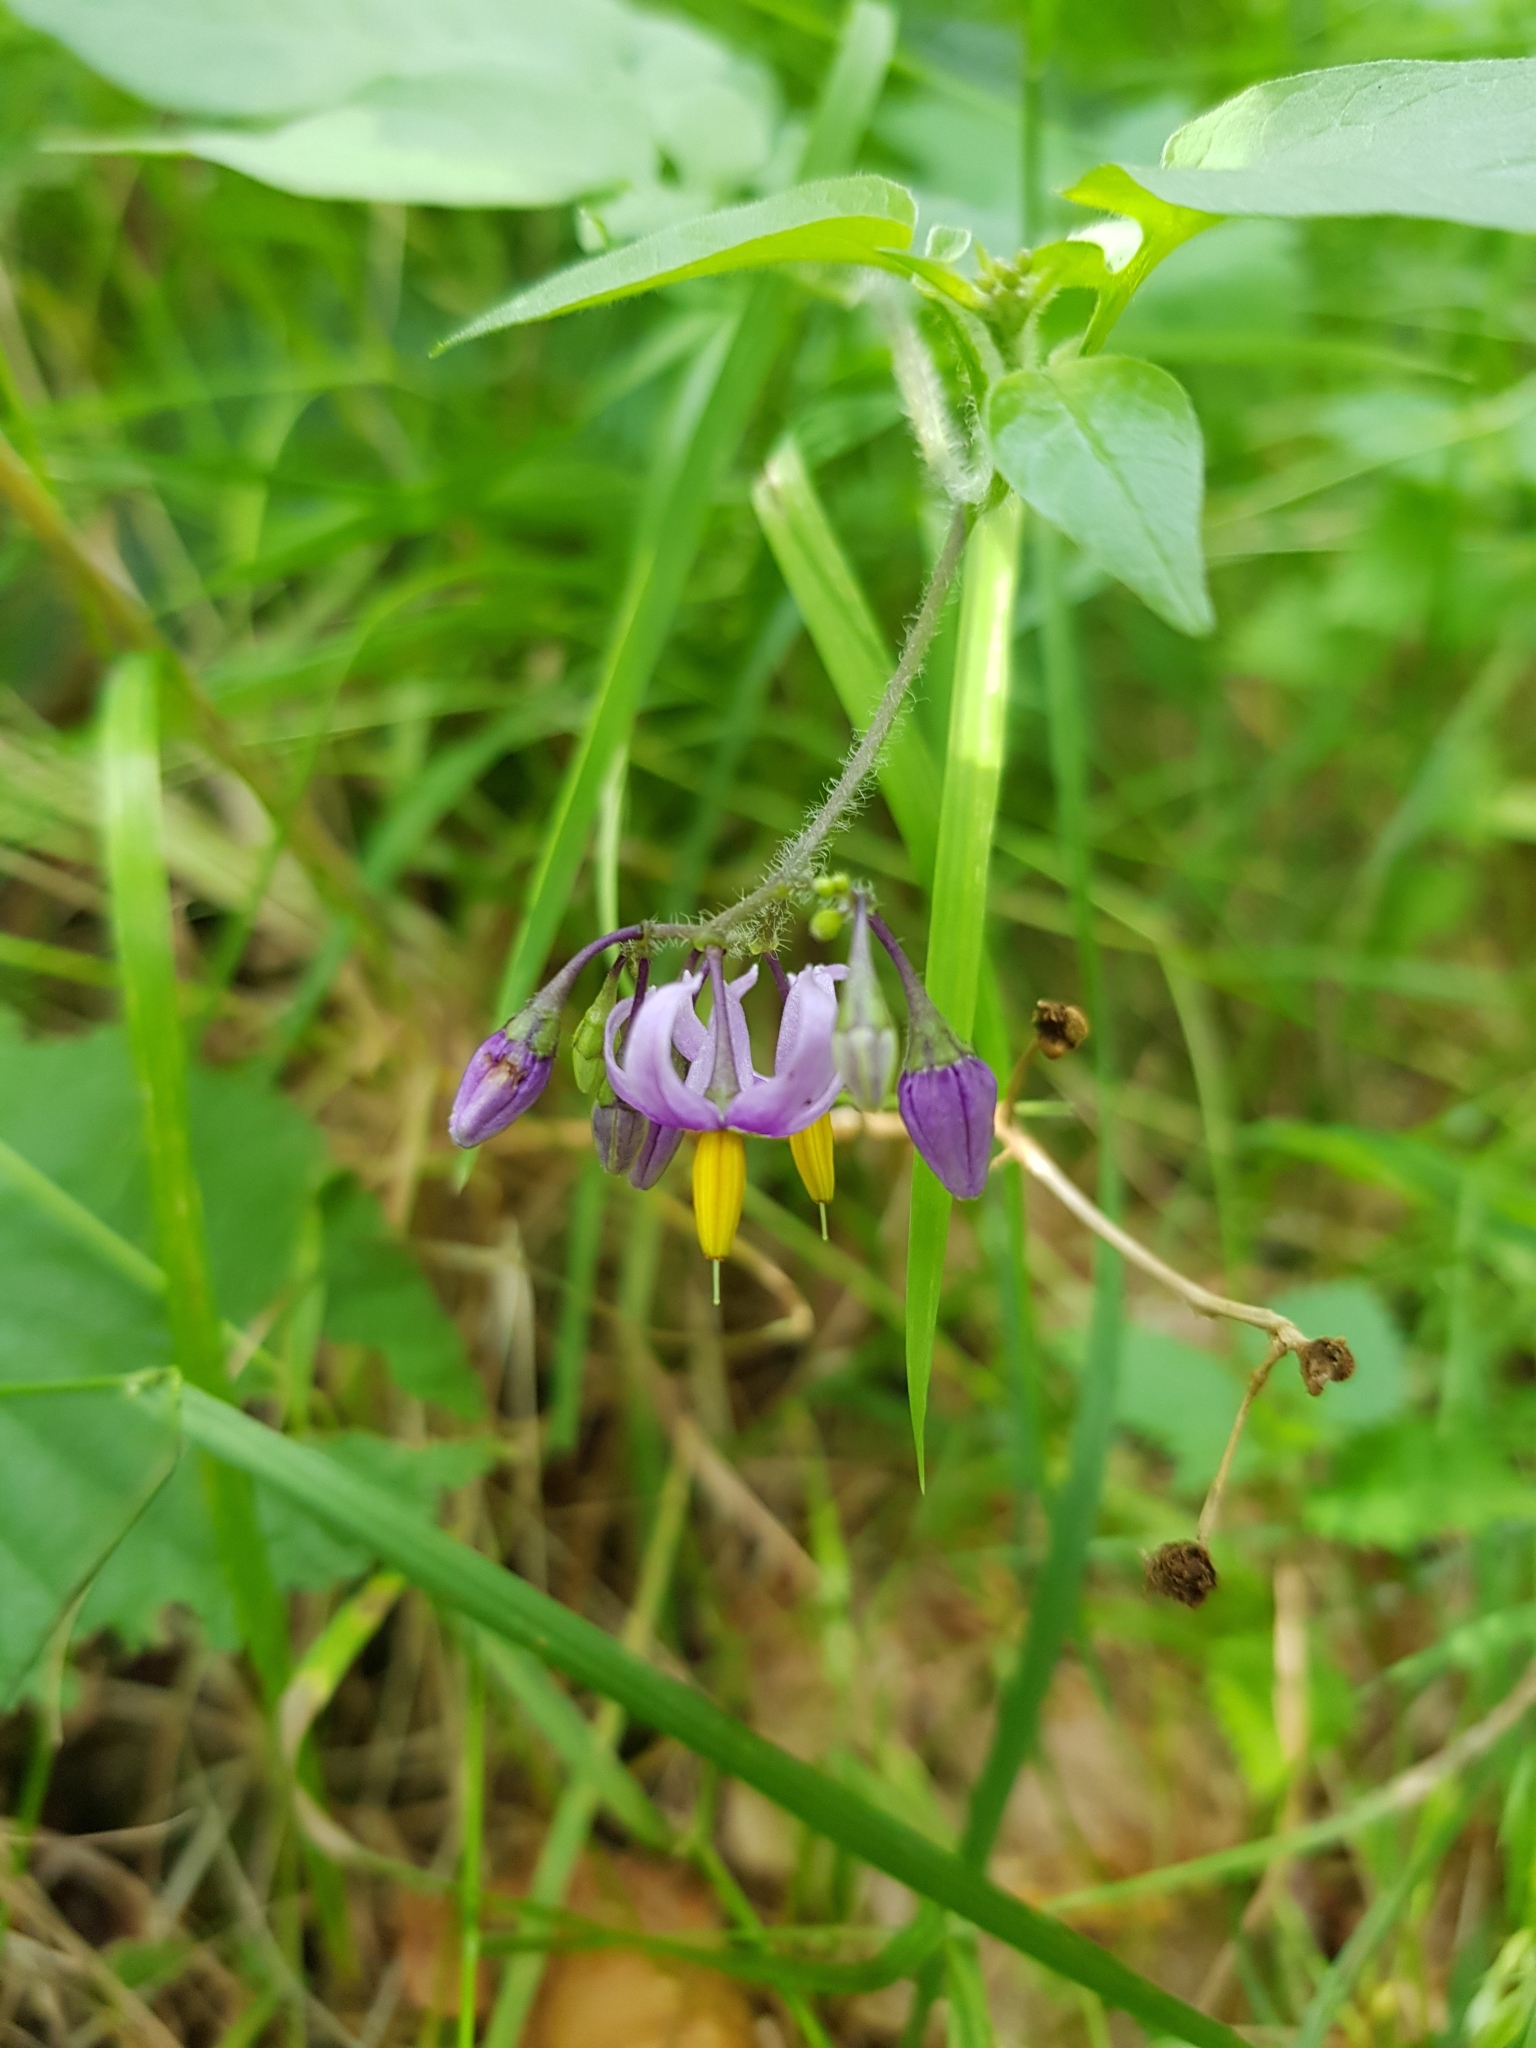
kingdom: Plantae
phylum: Tracheophyta
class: Magnoliopsida
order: Solanales
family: Solanaceae
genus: Solanum
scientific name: Solanum dulcamara
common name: Climbing nightshade
